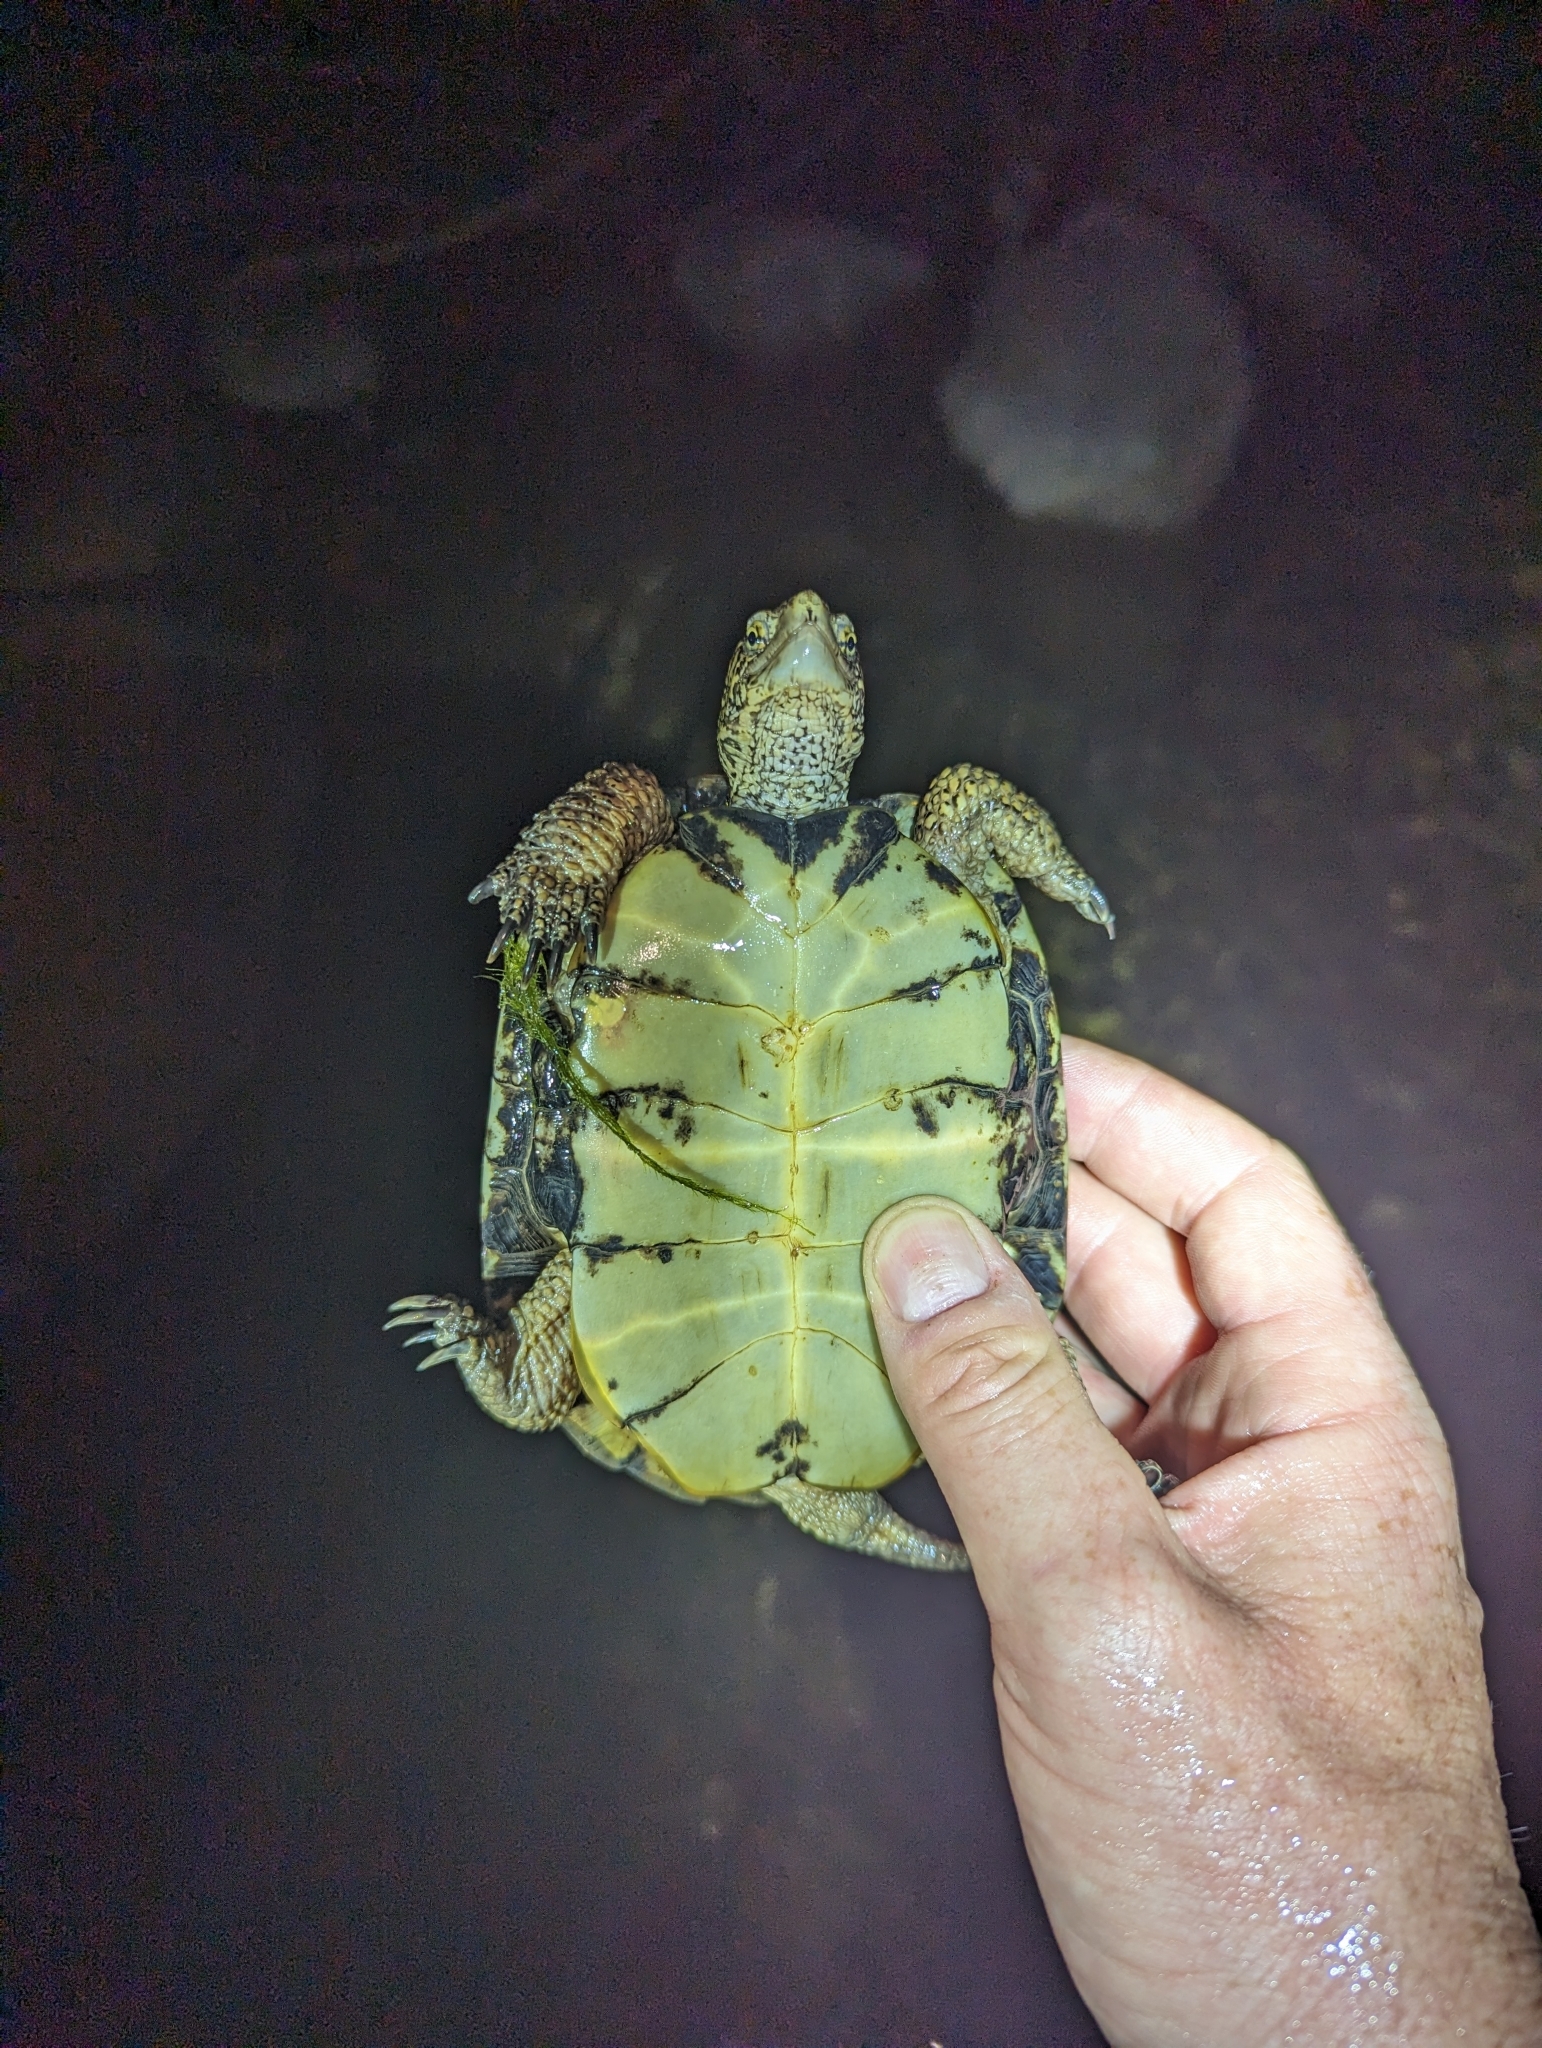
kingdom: Animalia
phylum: Chordata
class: Testudines
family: Emydidae
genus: Actinemys
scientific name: Actinemys marmorata
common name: Western pond turtle
